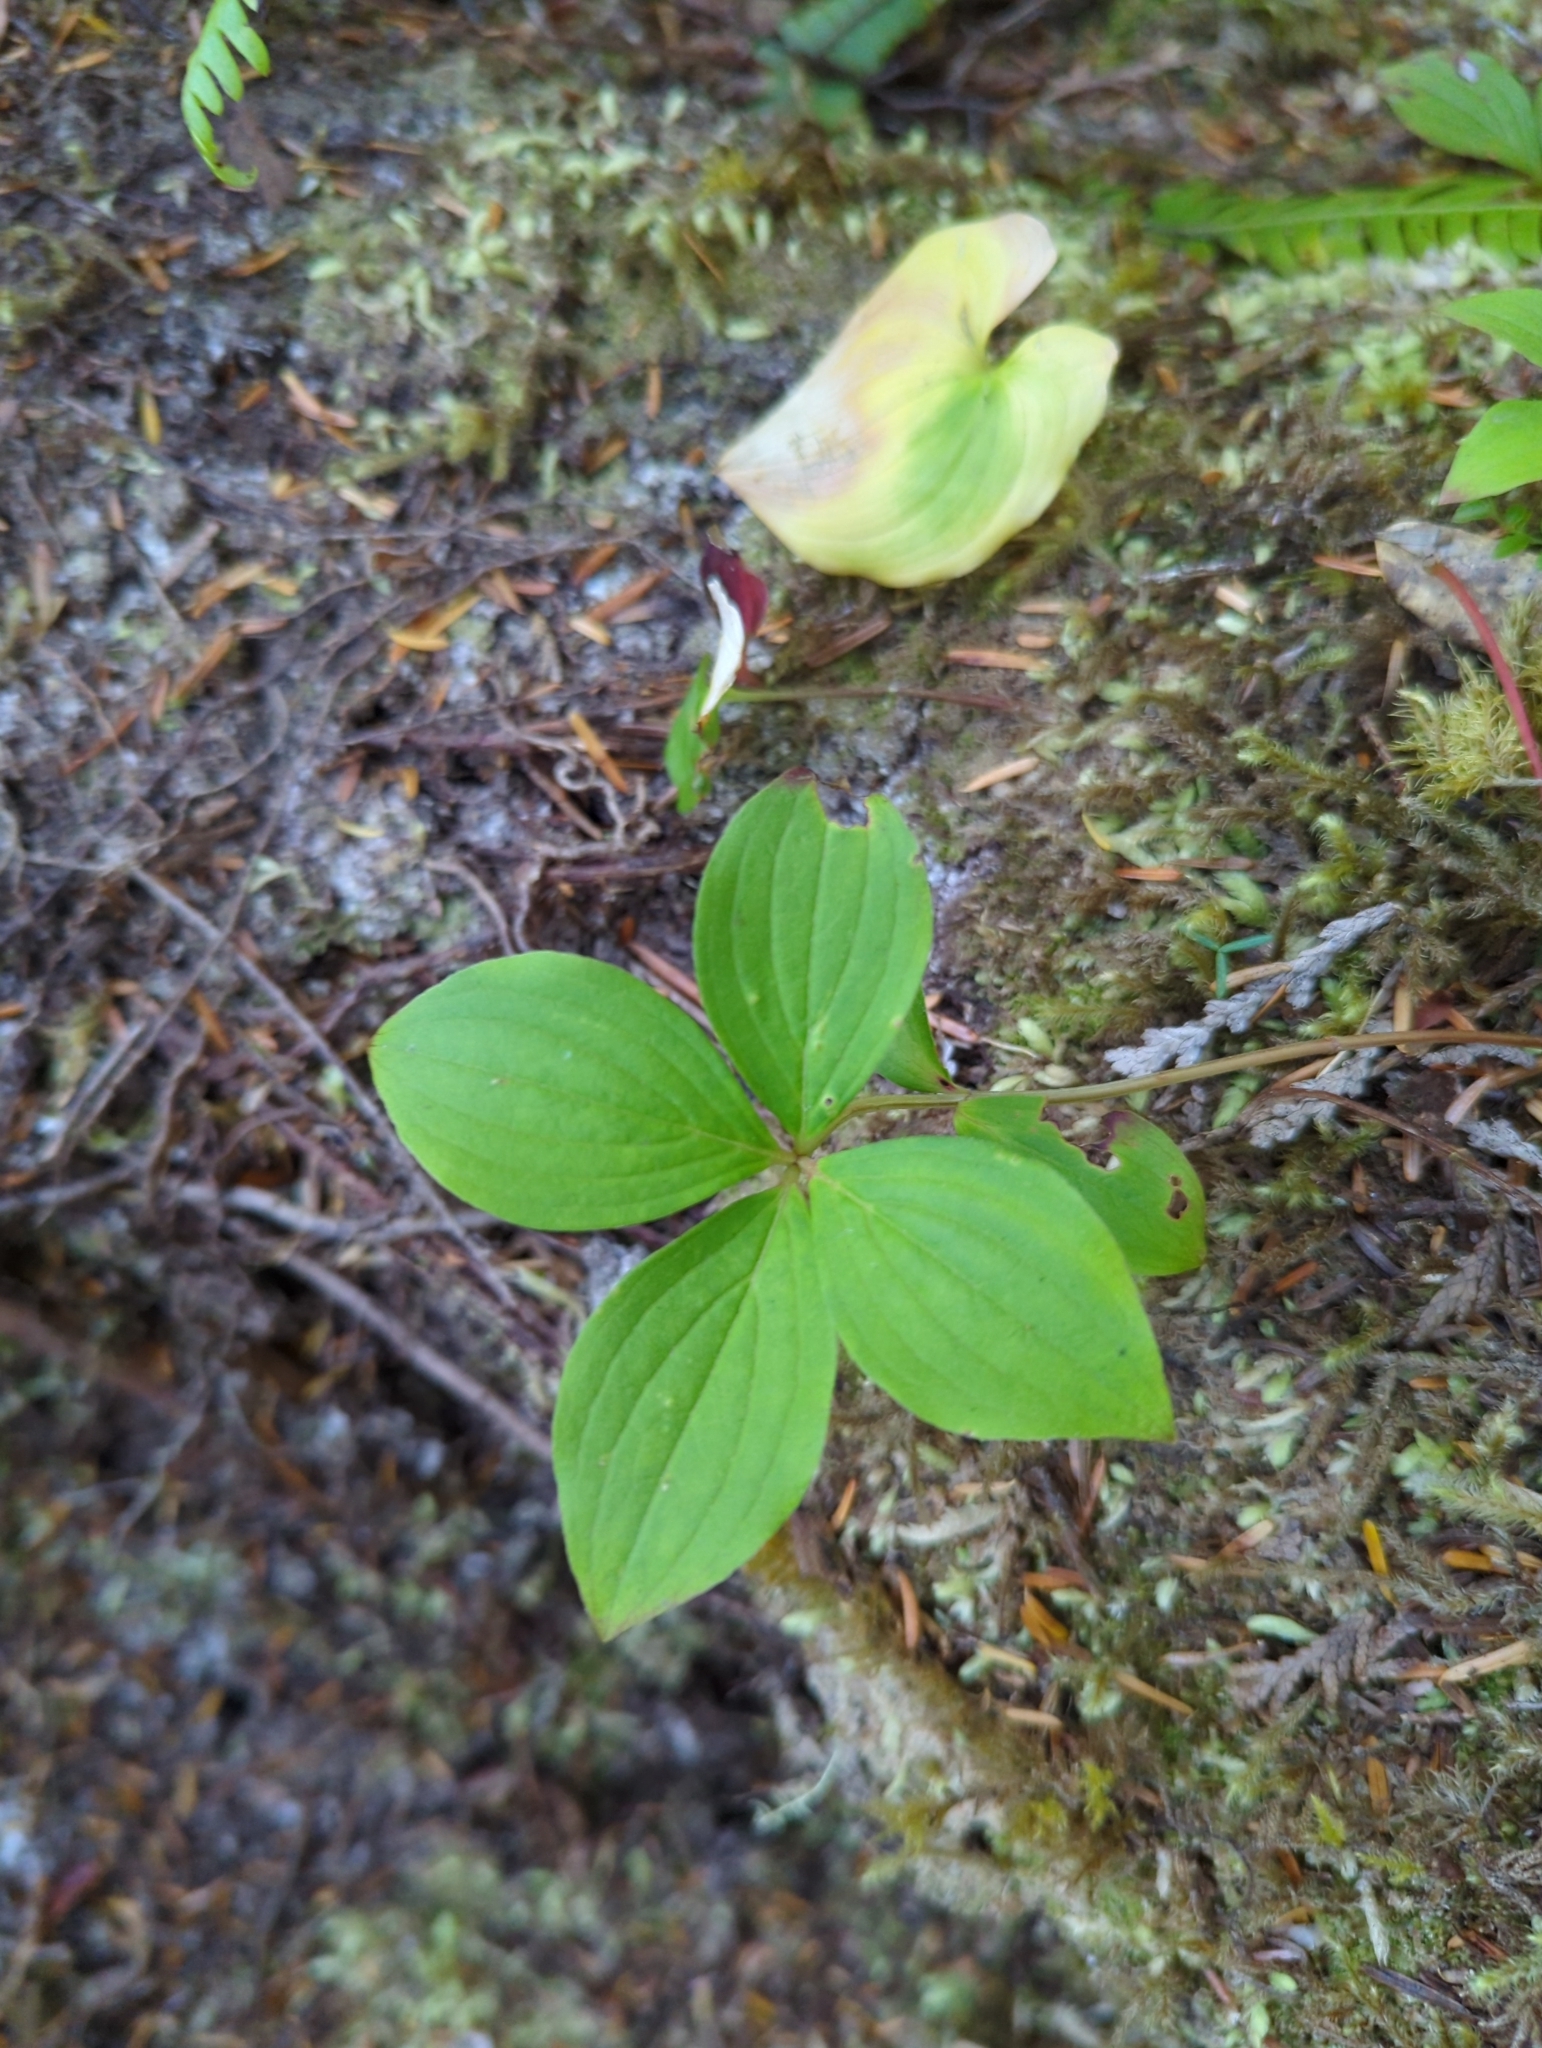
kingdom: Plantae
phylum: Tracheophyta
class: Magnoliopsida
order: Cornales
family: Cornaceae
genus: Cornus
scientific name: Cornus unalaschkensis
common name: Alaska bunchberry
